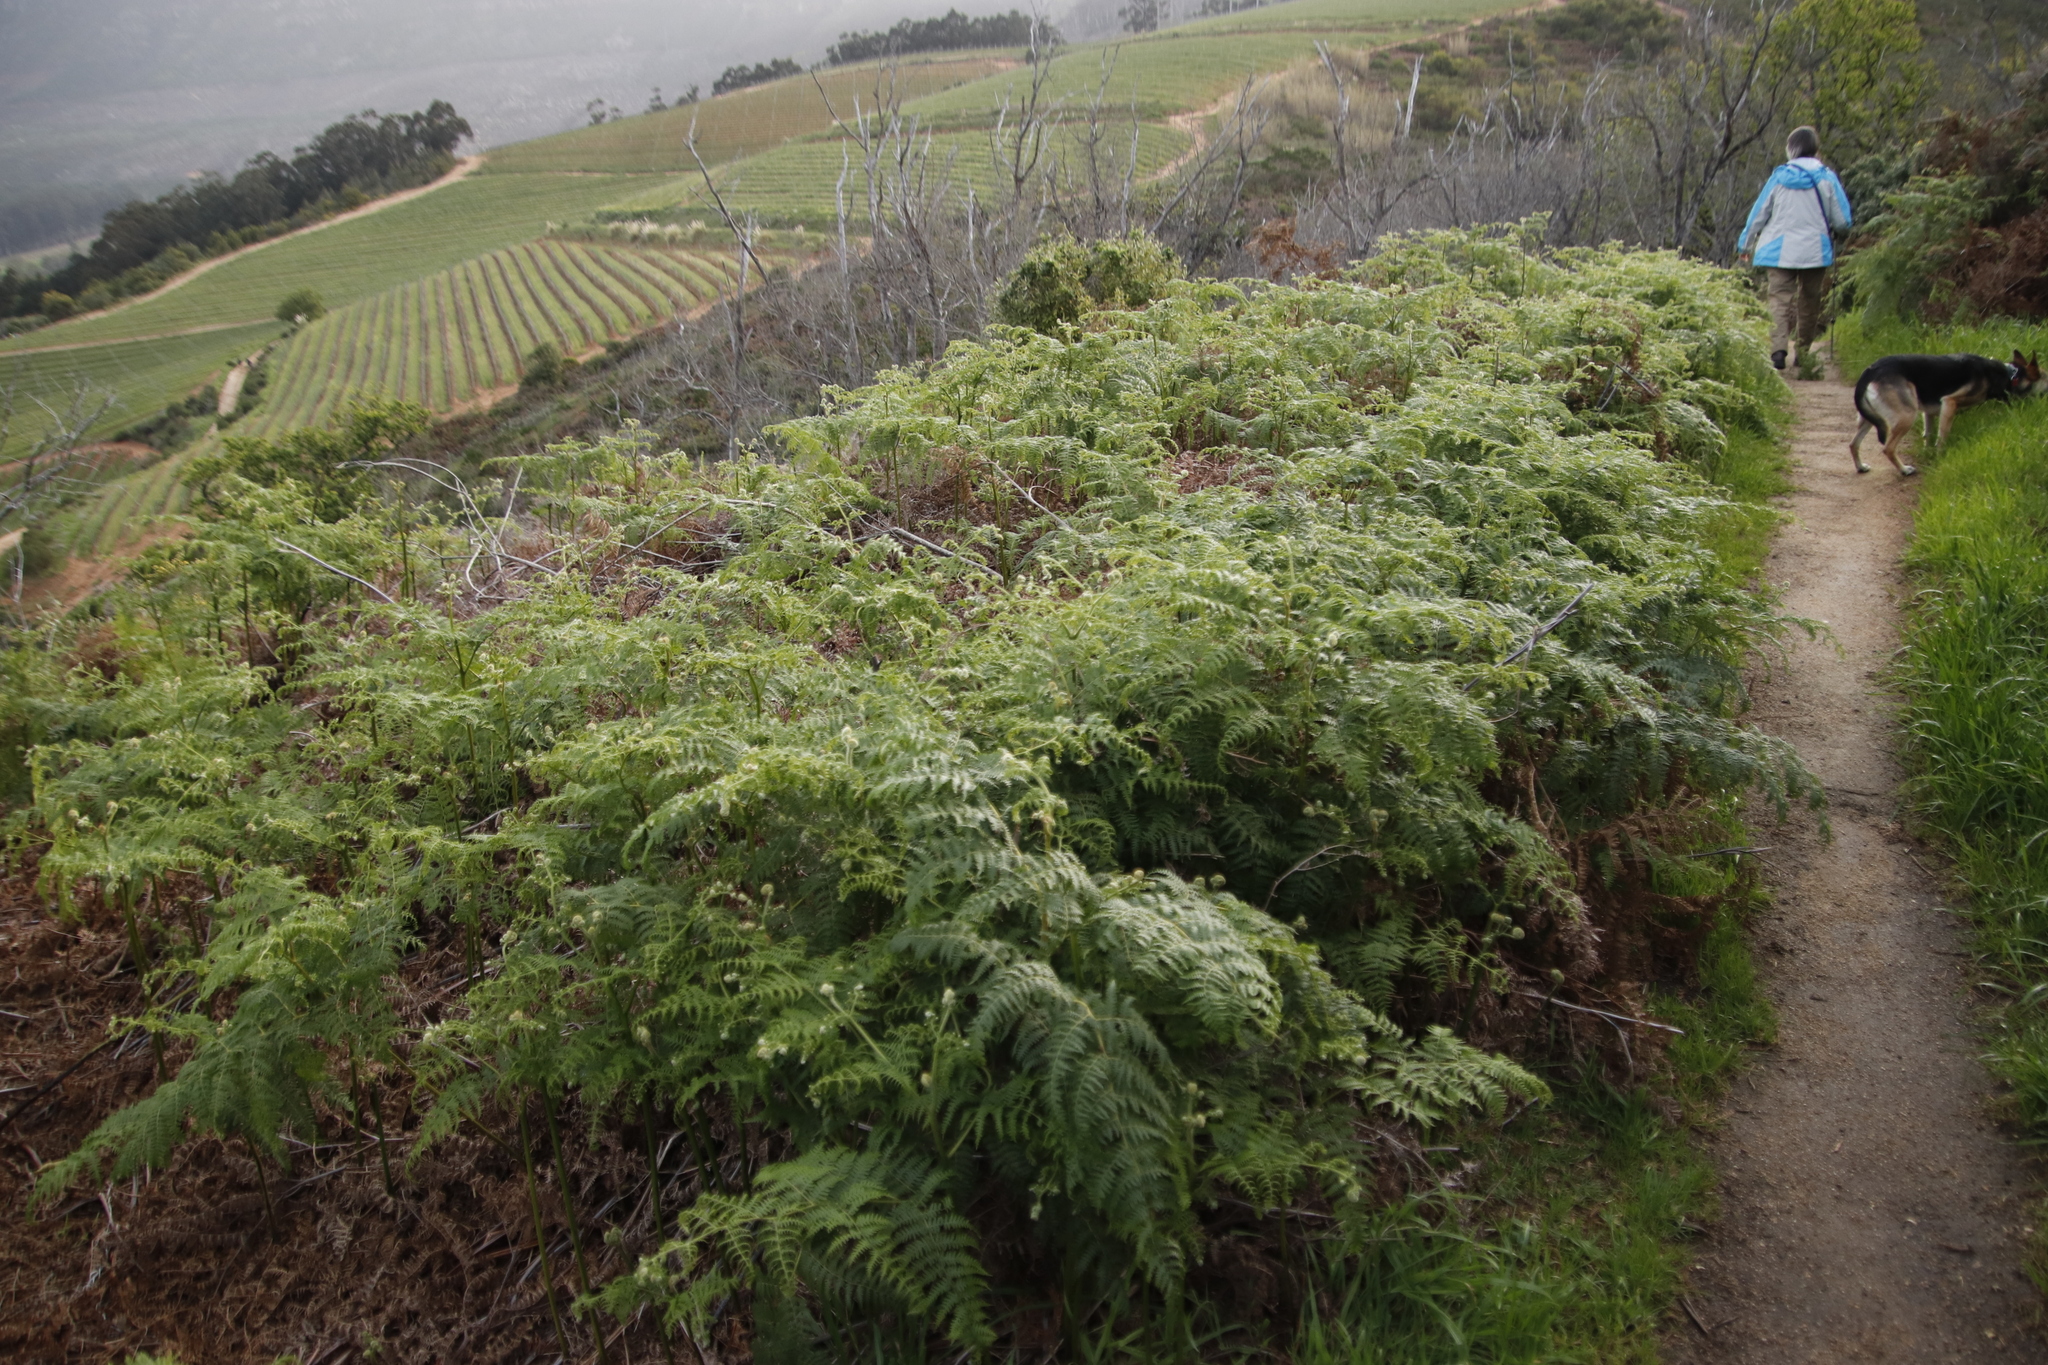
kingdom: Plantae
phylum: Tracheophyta
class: Polypodiopsida
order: Polypodiales
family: Dennstaedtiaceae
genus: Pteridium
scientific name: Pteridium aquilinum
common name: Bracken
